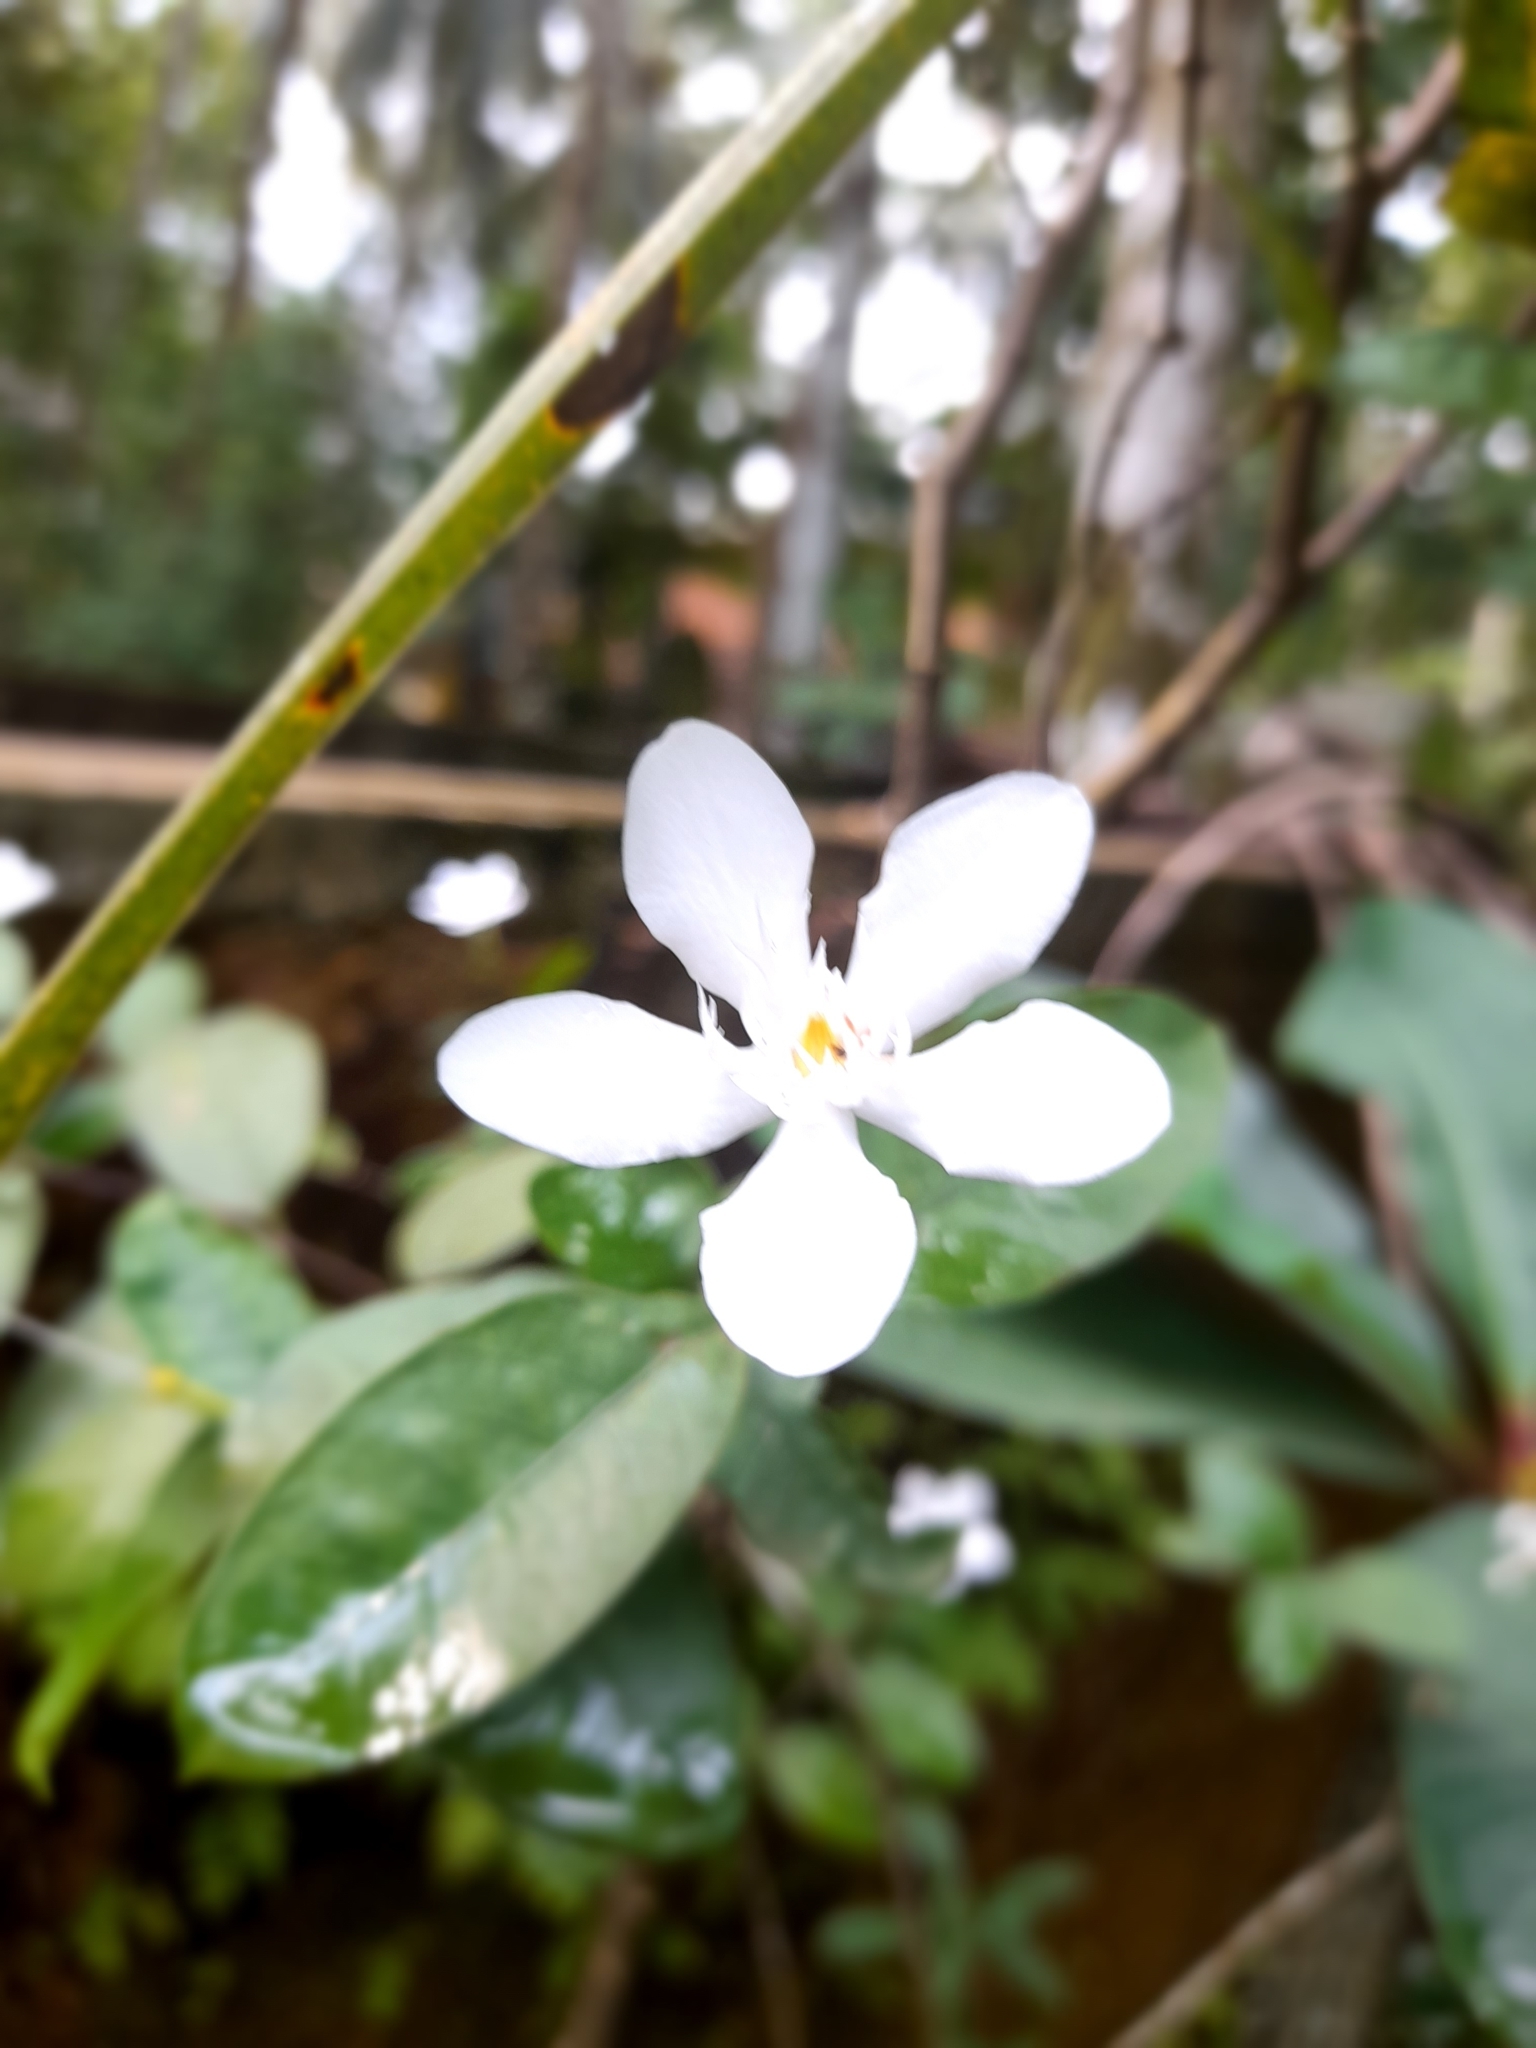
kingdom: Plantae
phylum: Tracheophyta
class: Magnoliopsida
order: Gentianales
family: Apocynaceae
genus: Wrightia
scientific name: Wrightia antidysenterica
